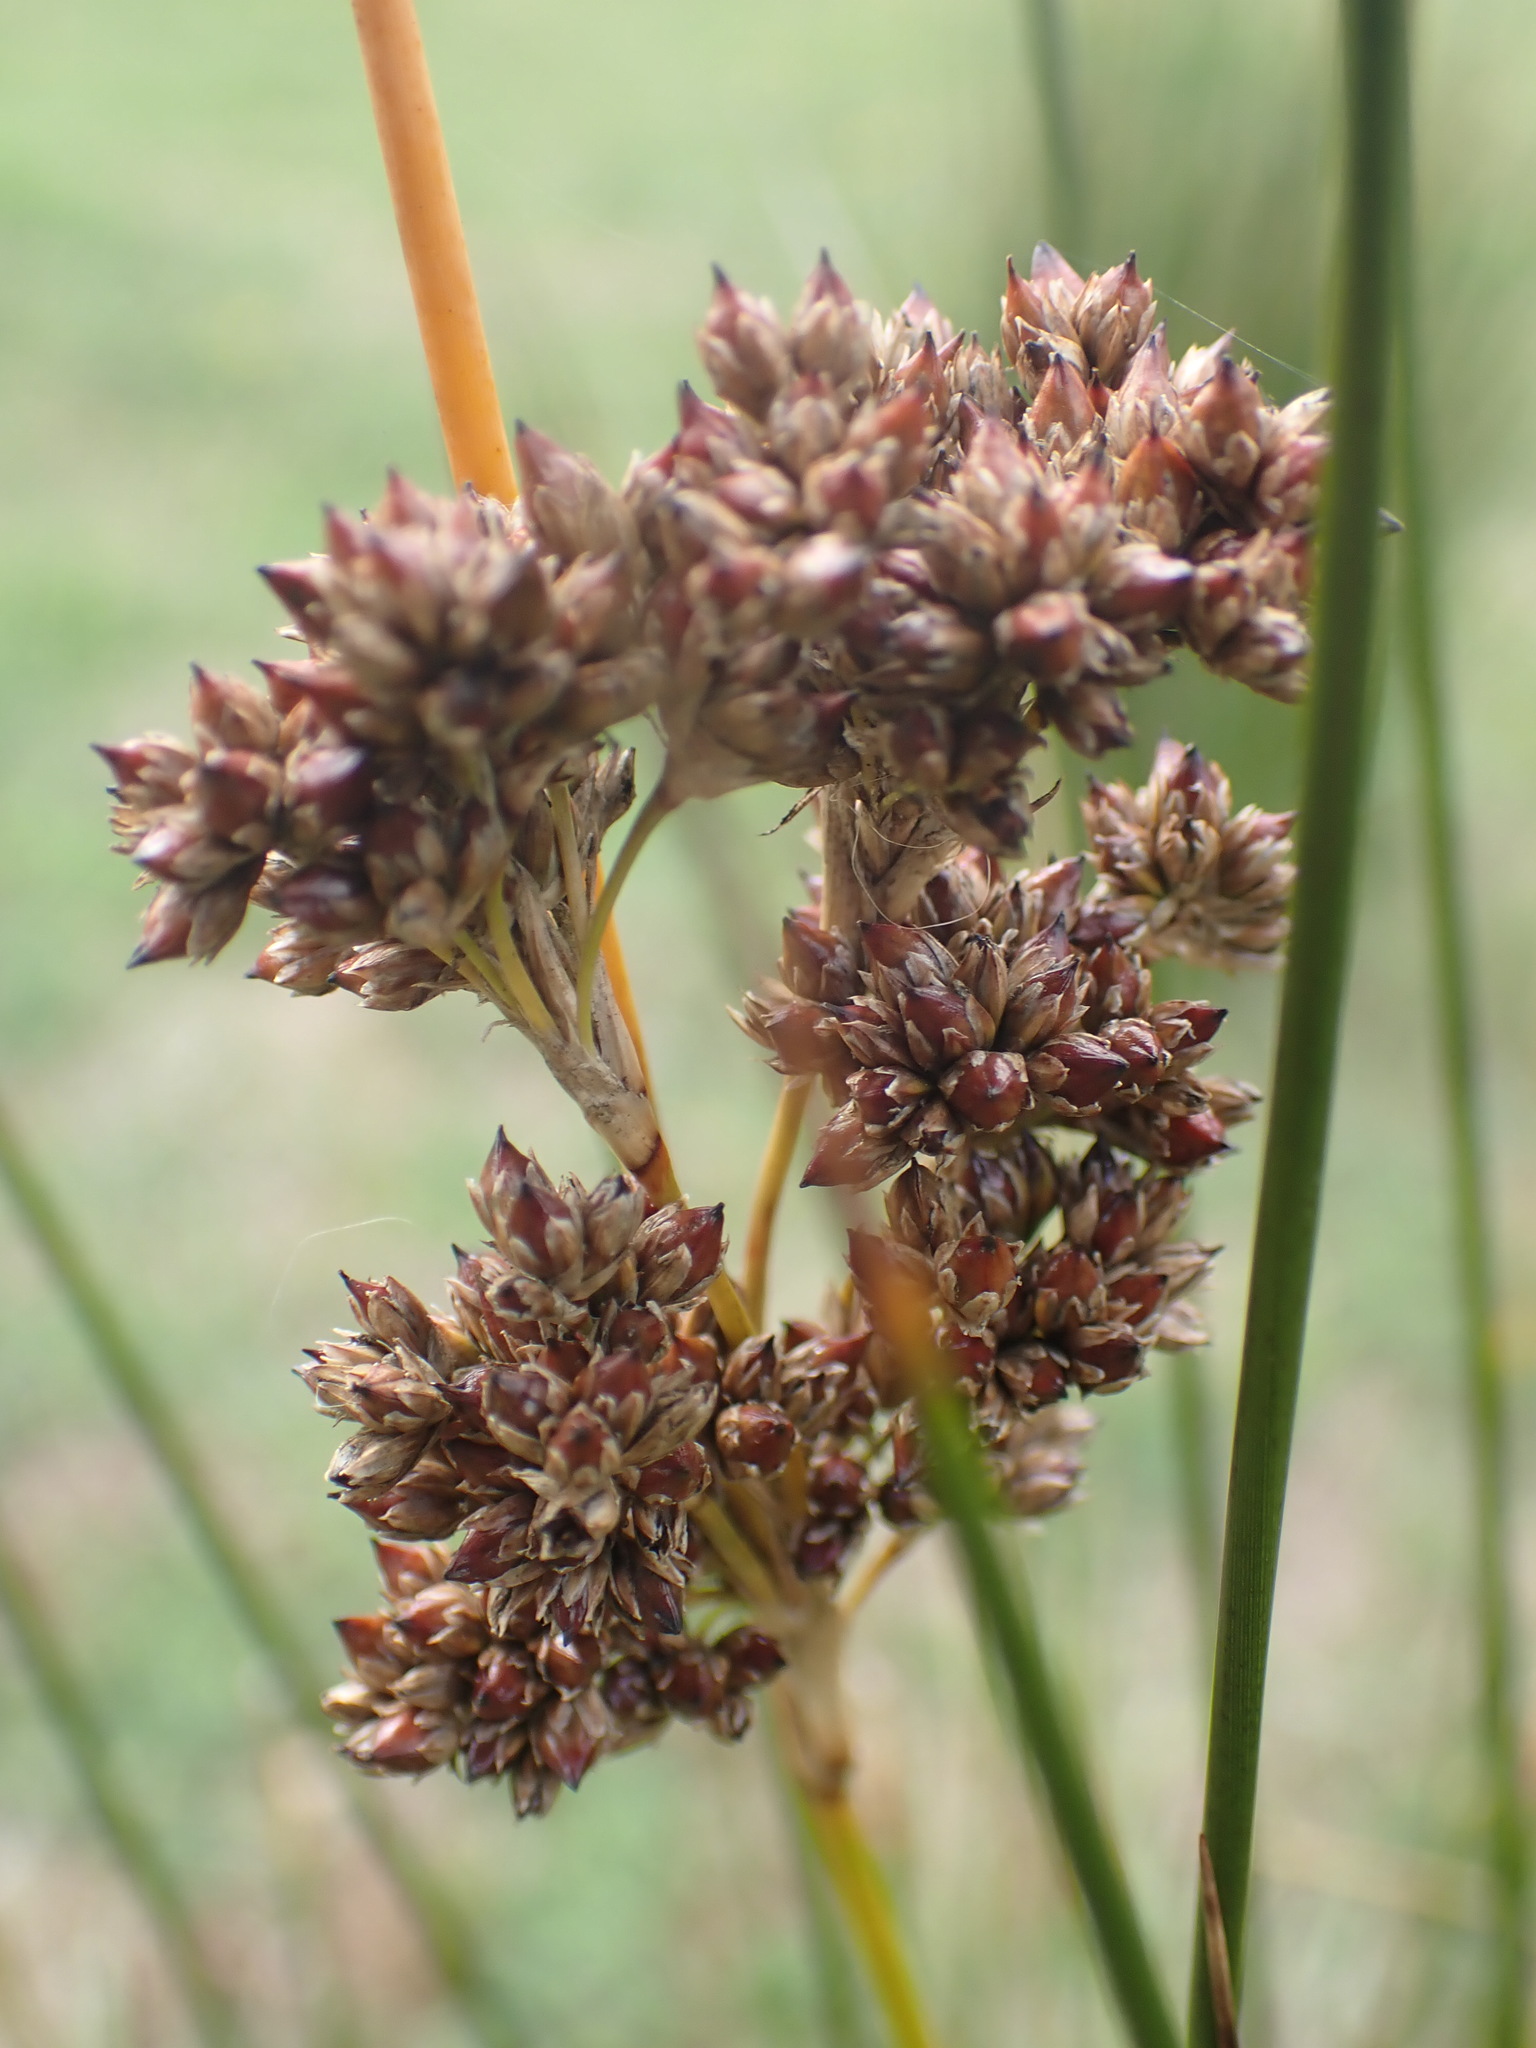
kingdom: Plantae
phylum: Tracheophyta
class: Liliopsida
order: Poales
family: Juncaceae
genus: Juncus
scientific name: Juncus maritimus
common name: Sea rush
